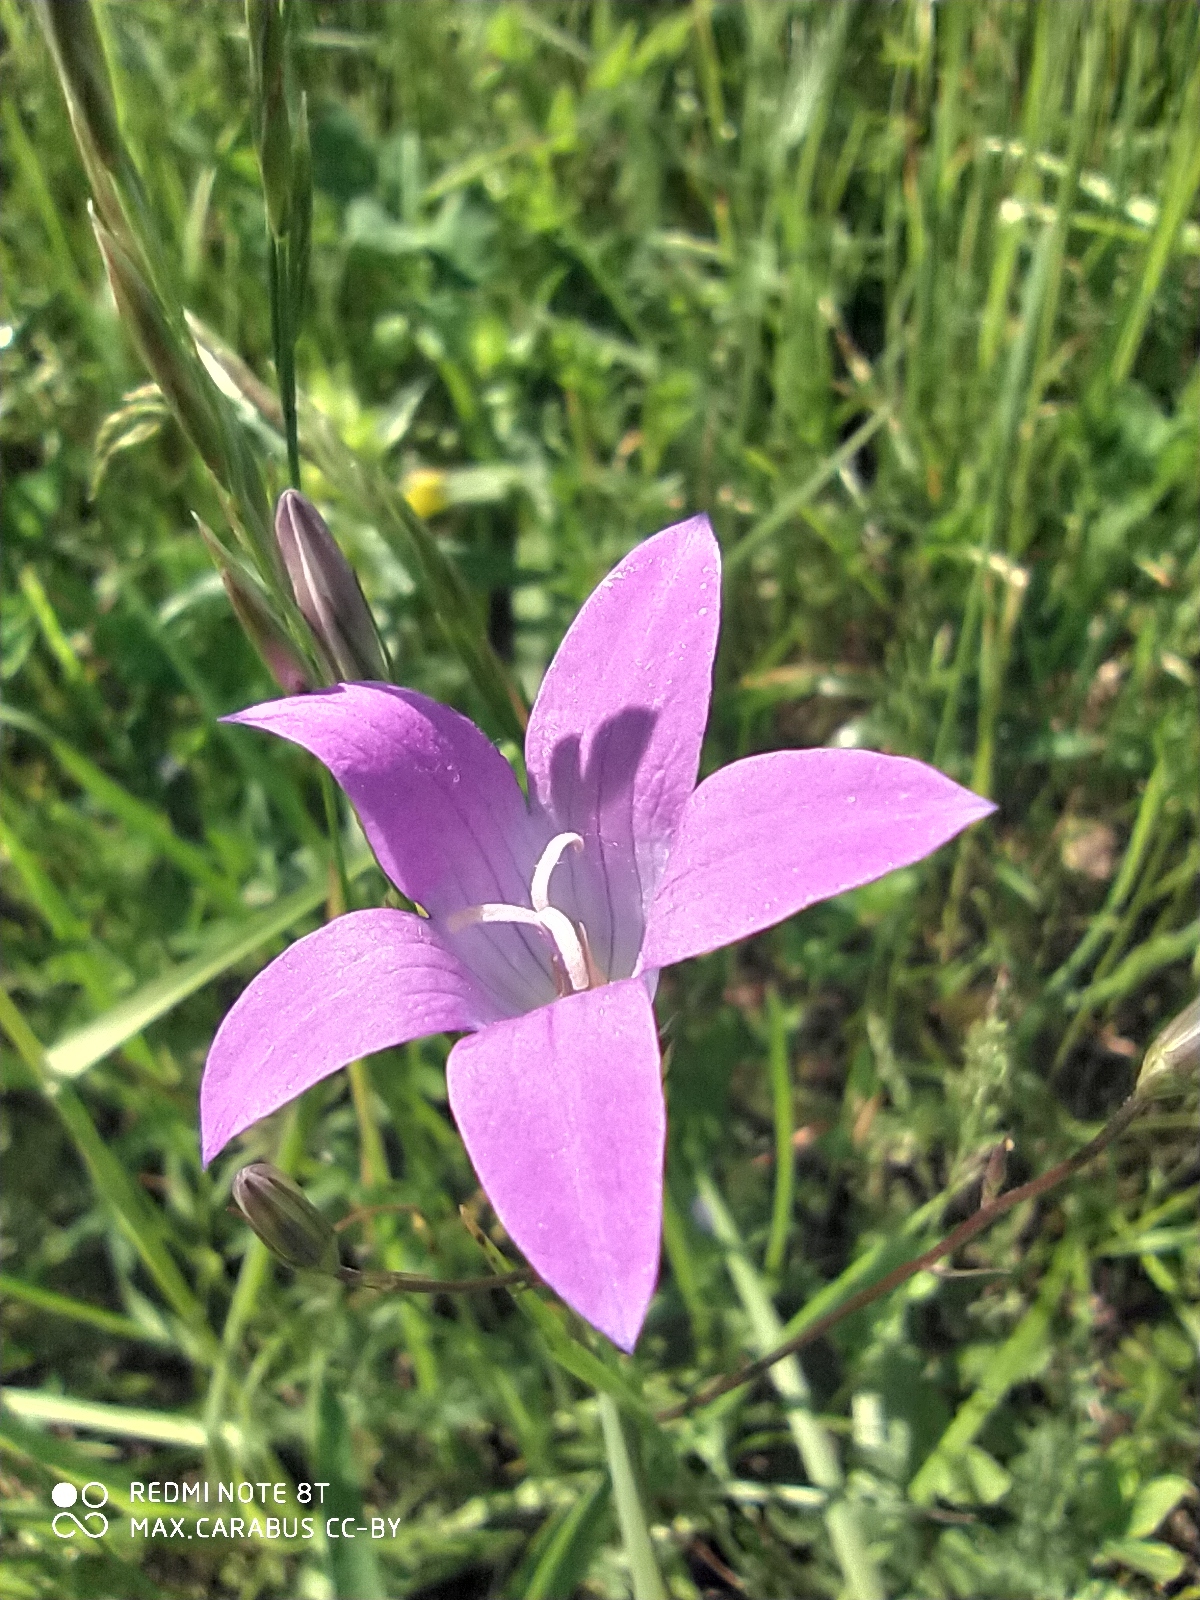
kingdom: Plantae
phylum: Tracheophyta
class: Magnoliopsida
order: Asterales
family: Campanulaceae
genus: Campanula
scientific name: Campanula patula
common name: Spreading bellflower
